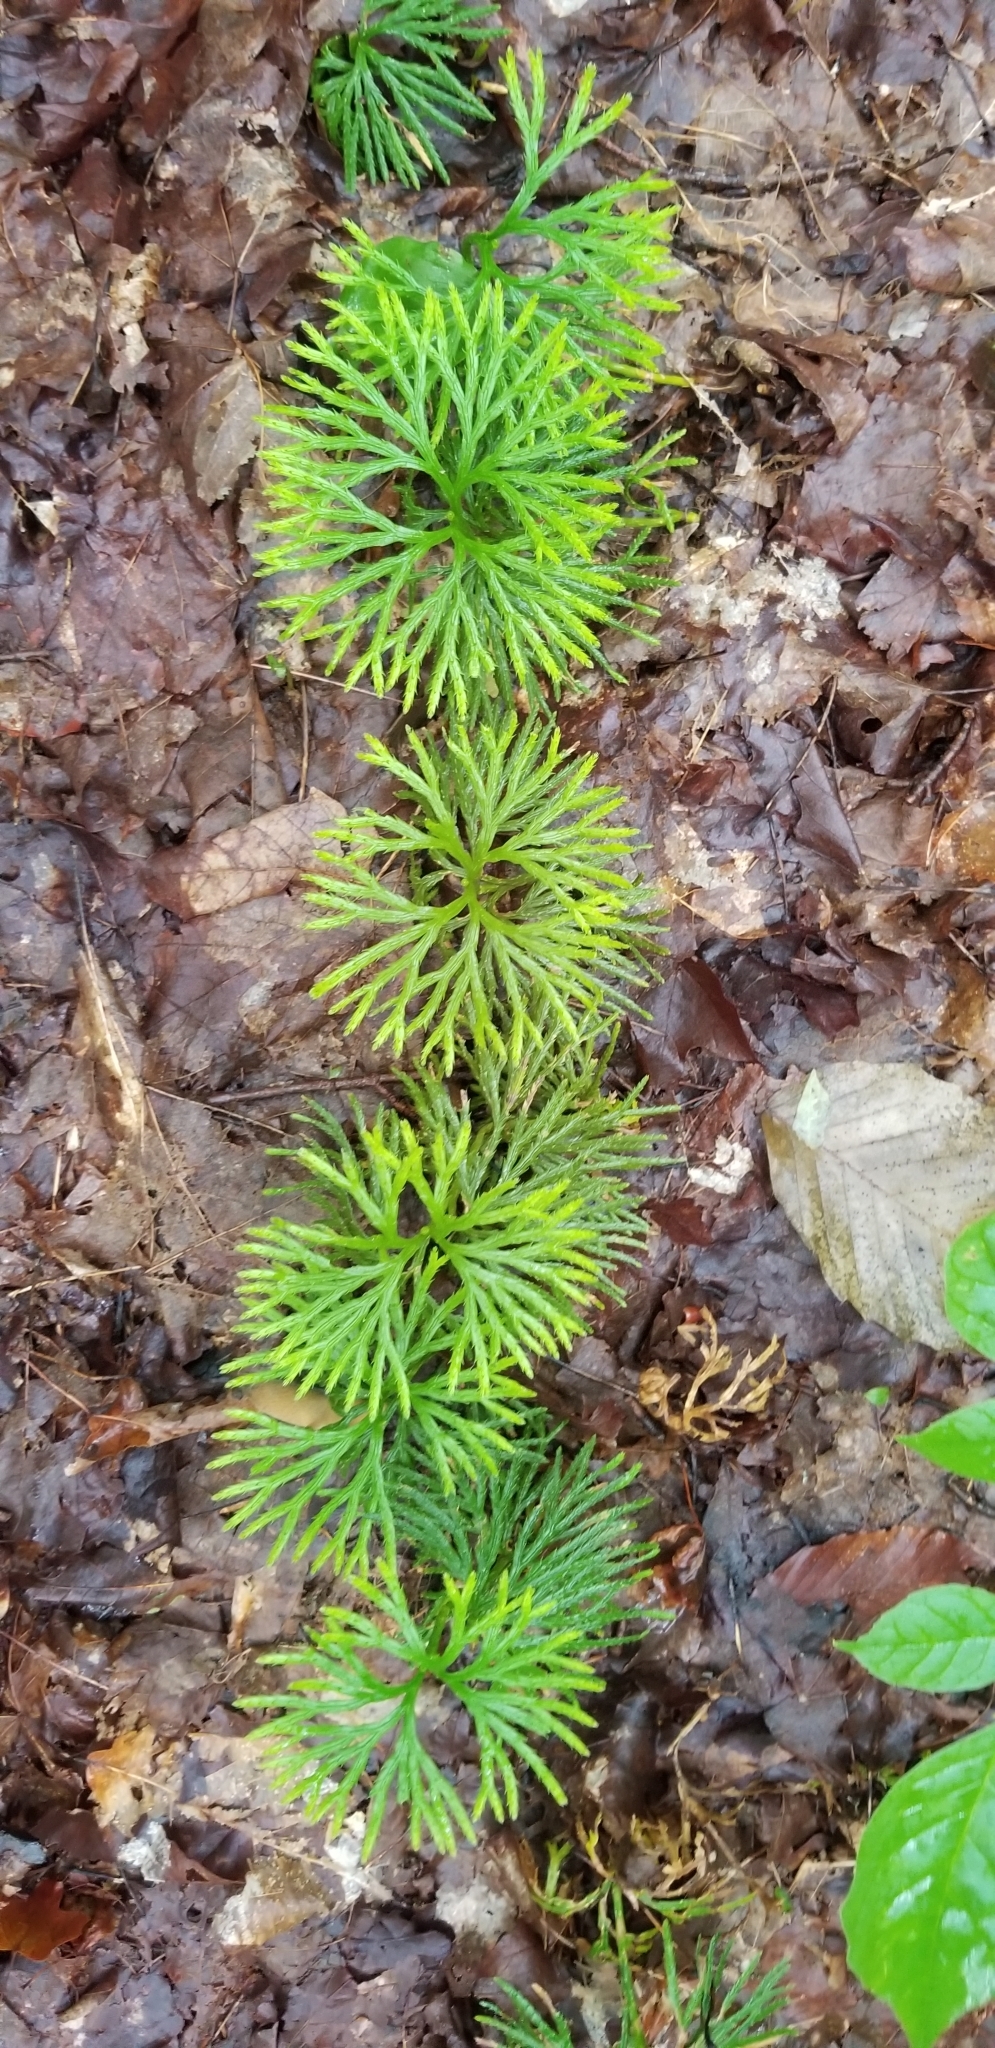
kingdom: Plantae
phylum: Tracheophyta
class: Lycopodiopsida
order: Lycopodiales
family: Lycopodiaceae
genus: Diphasiastrum
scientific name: Diphasiastrum digitatum
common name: Southern running-pine
